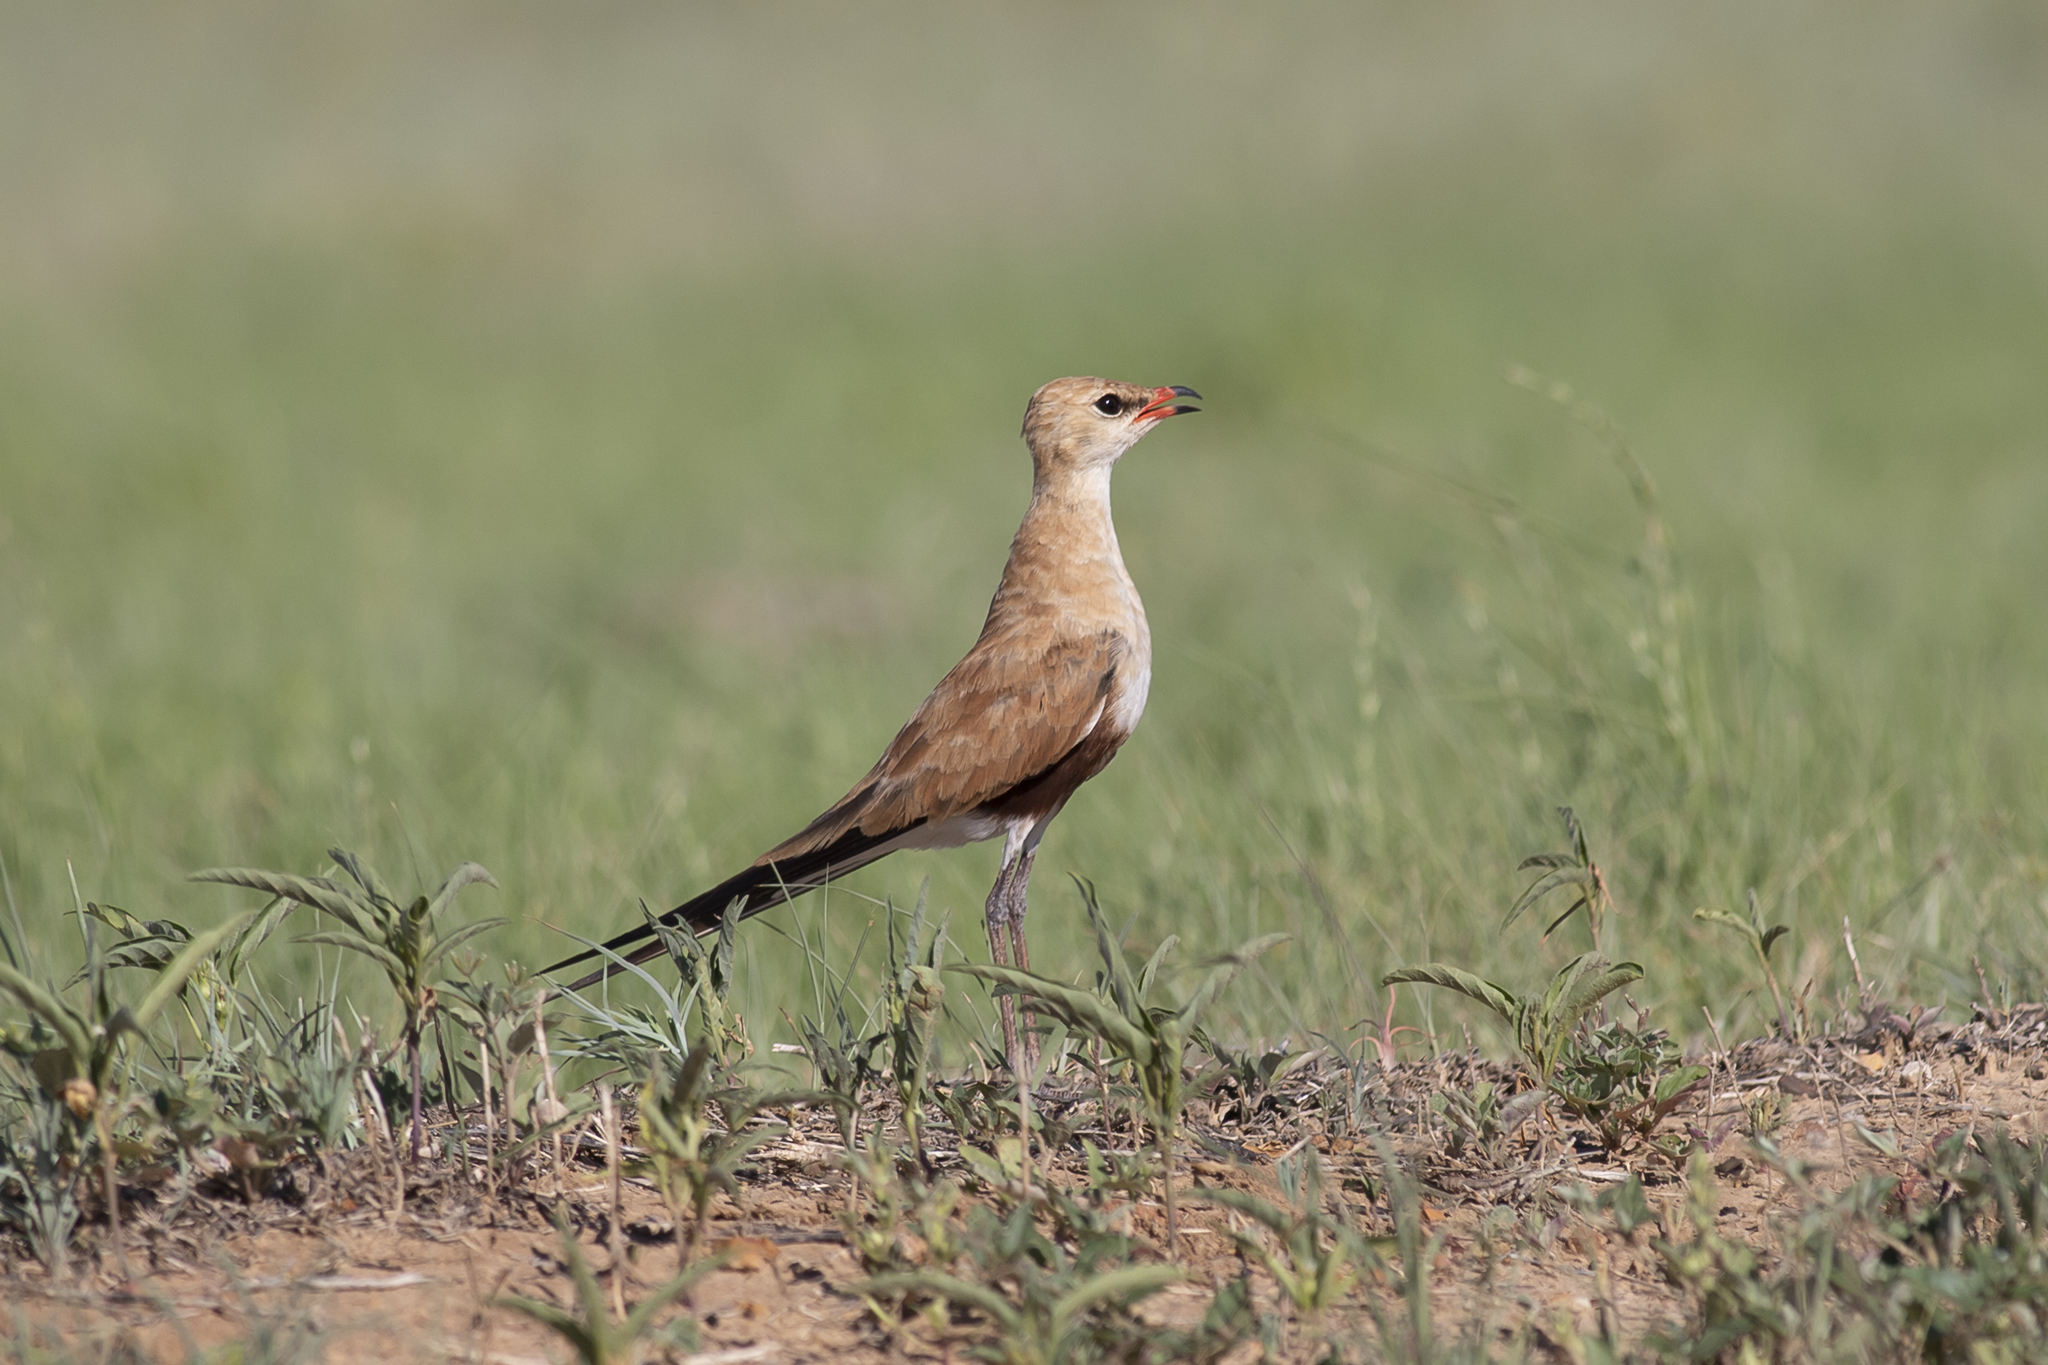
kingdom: Animalia
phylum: Chordata
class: Aves
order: Charadriiformes
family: Glareolidae
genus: Stiltia
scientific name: Stiltia isabella
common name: Australian pratincole
